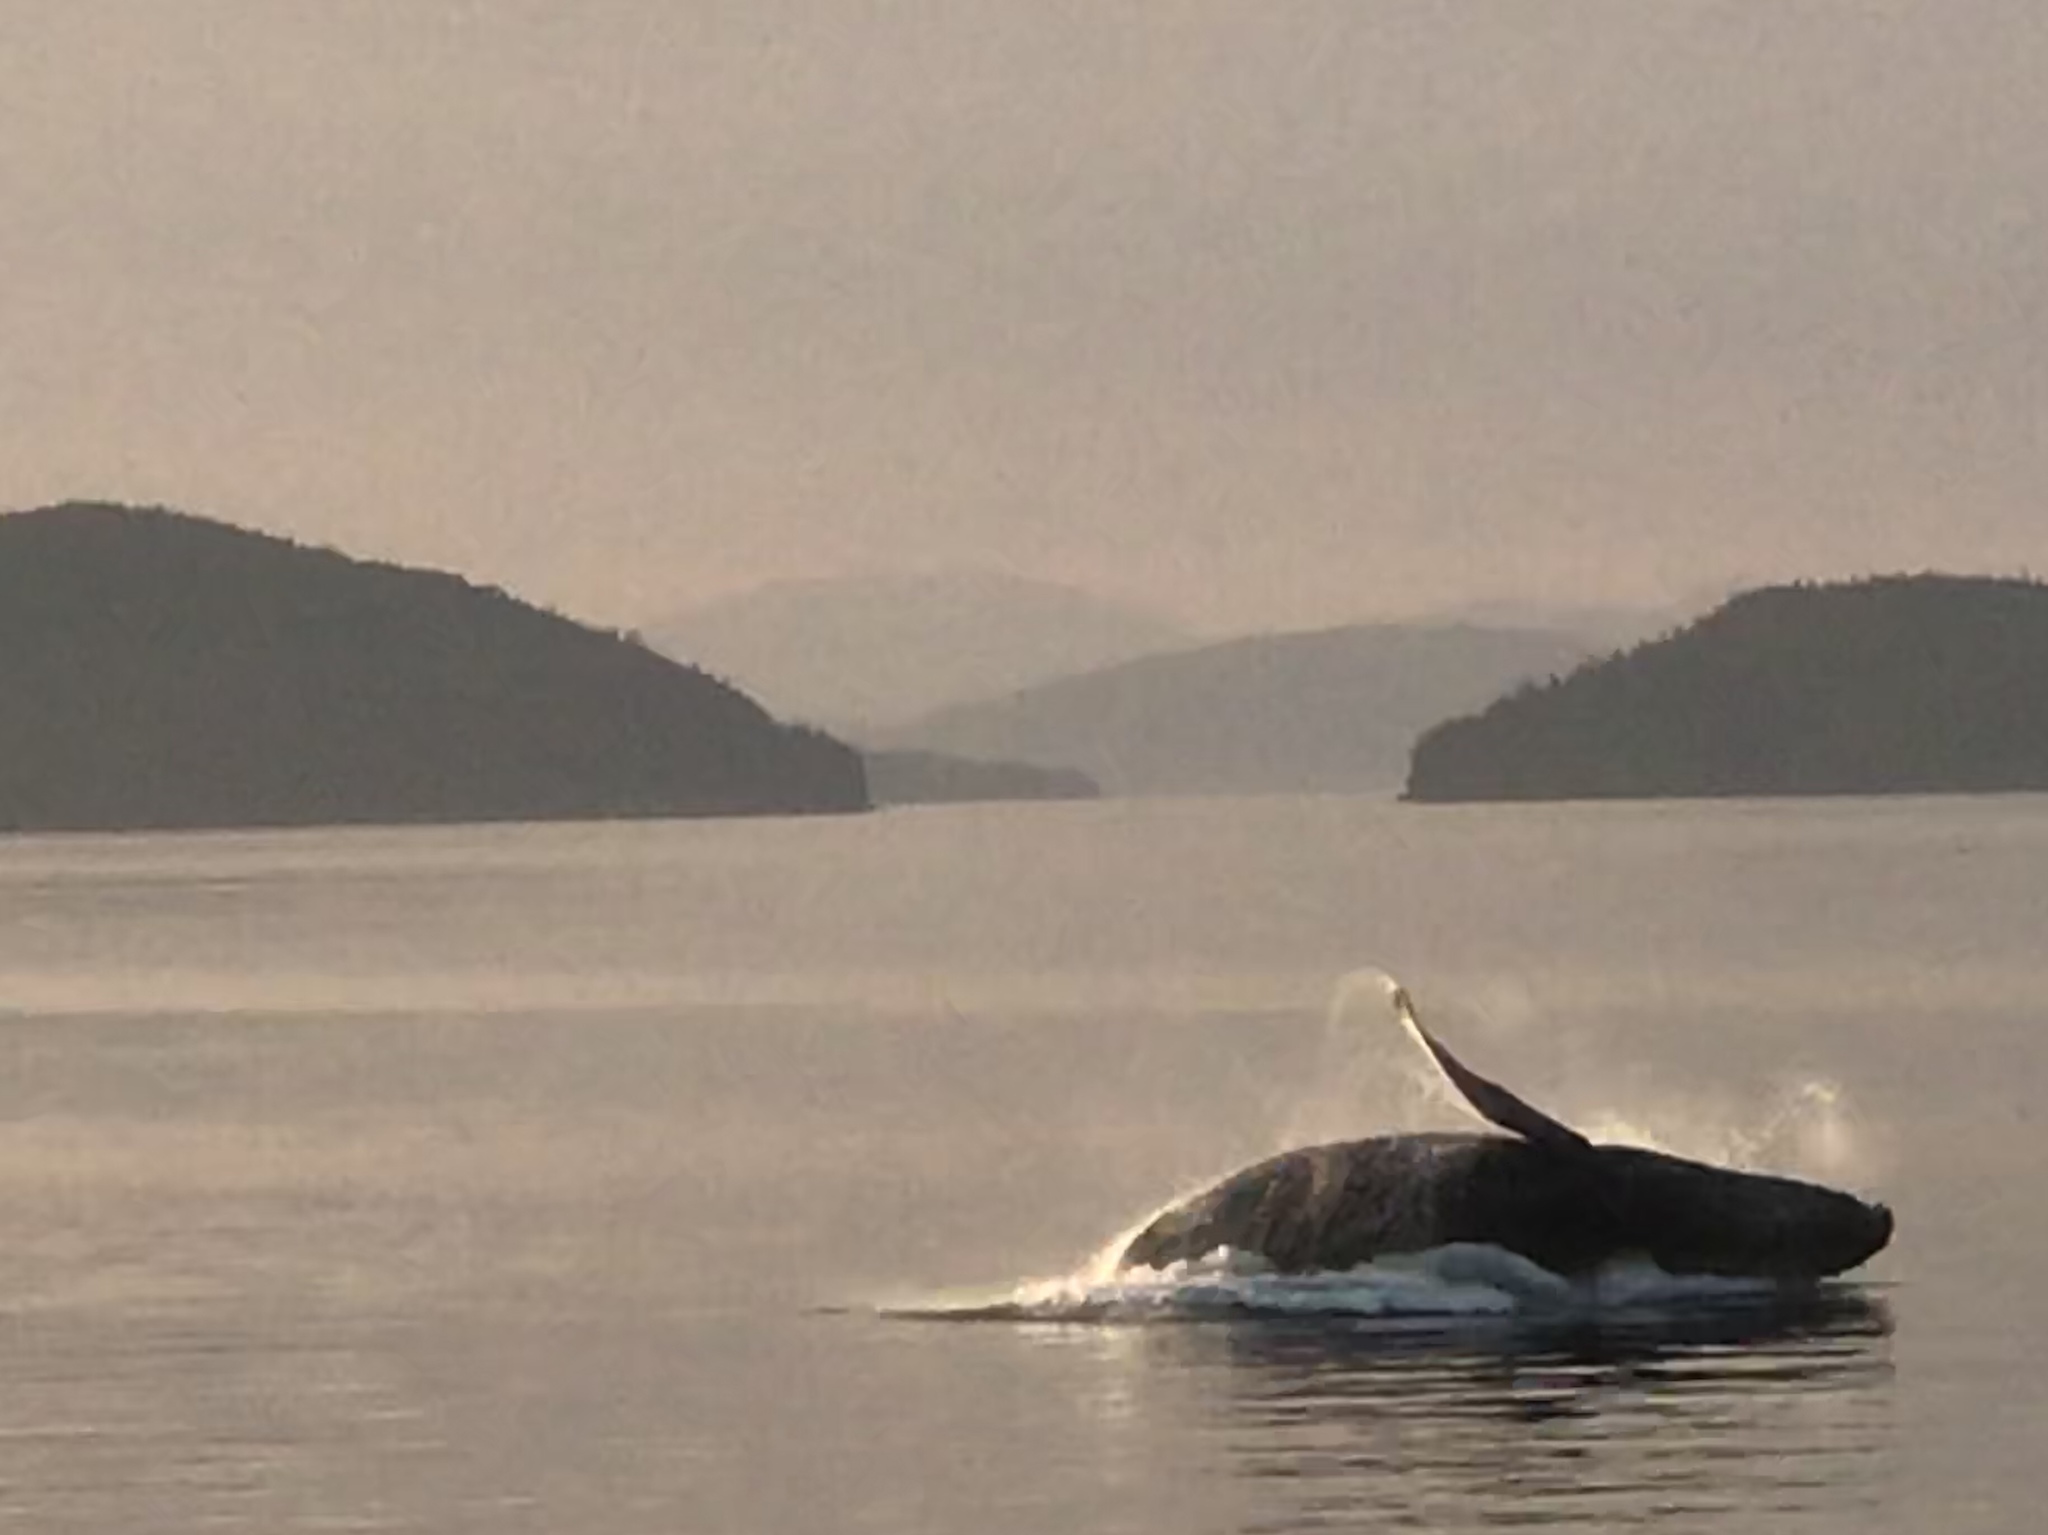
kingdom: Animalia
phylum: Chordata
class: Mammalia
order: Cetacea
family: Balaenopteridae
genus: Megaptera
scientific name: Megaptera novaeangliae
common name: Humpback whale
